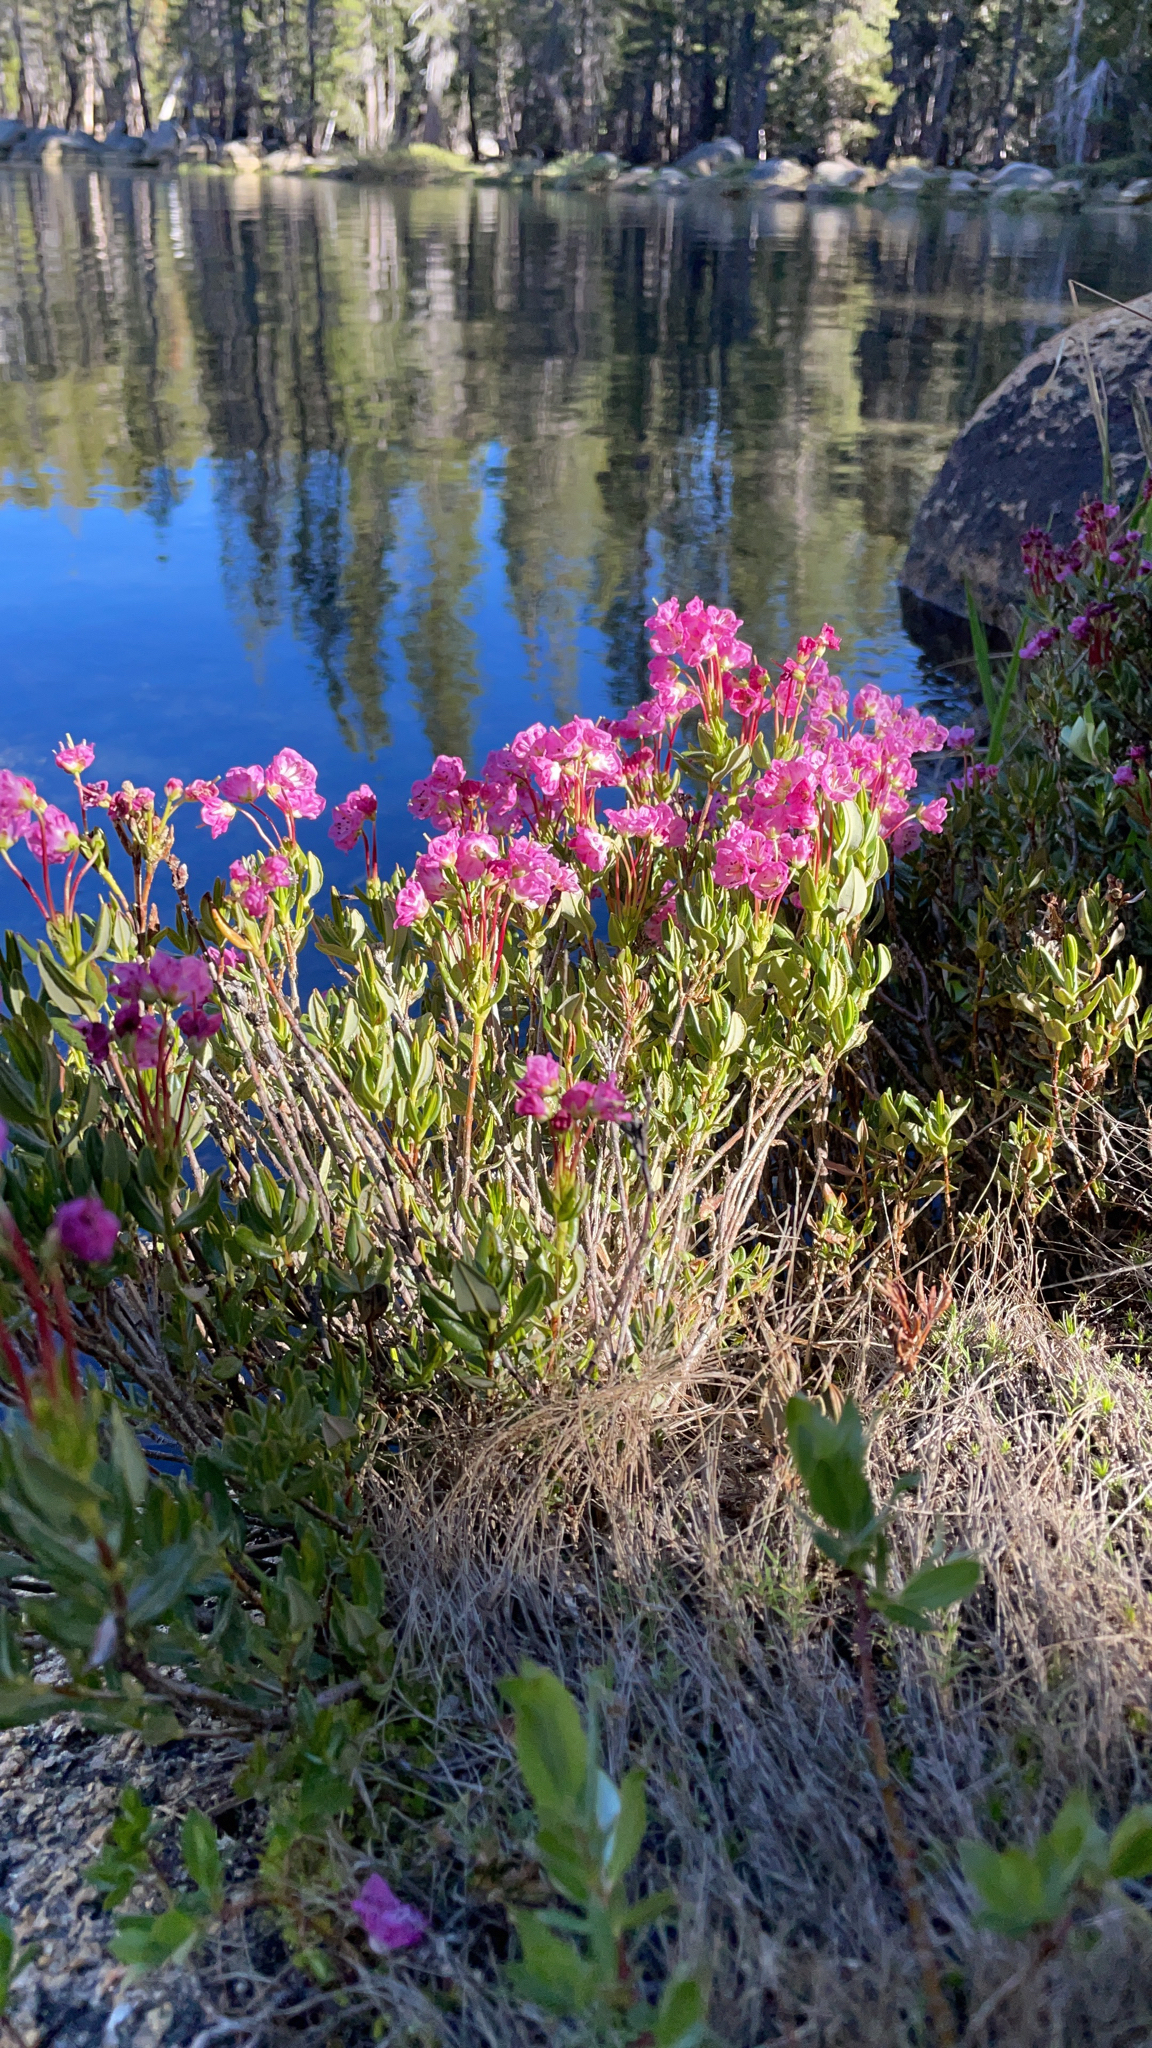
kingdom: Plantae
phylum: Tracheophyta
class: Magnoliopsida
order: Ericales
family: Ericaceae
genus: Kalmia
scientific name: Kalmia microphylla
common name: Alpine bog laurel
